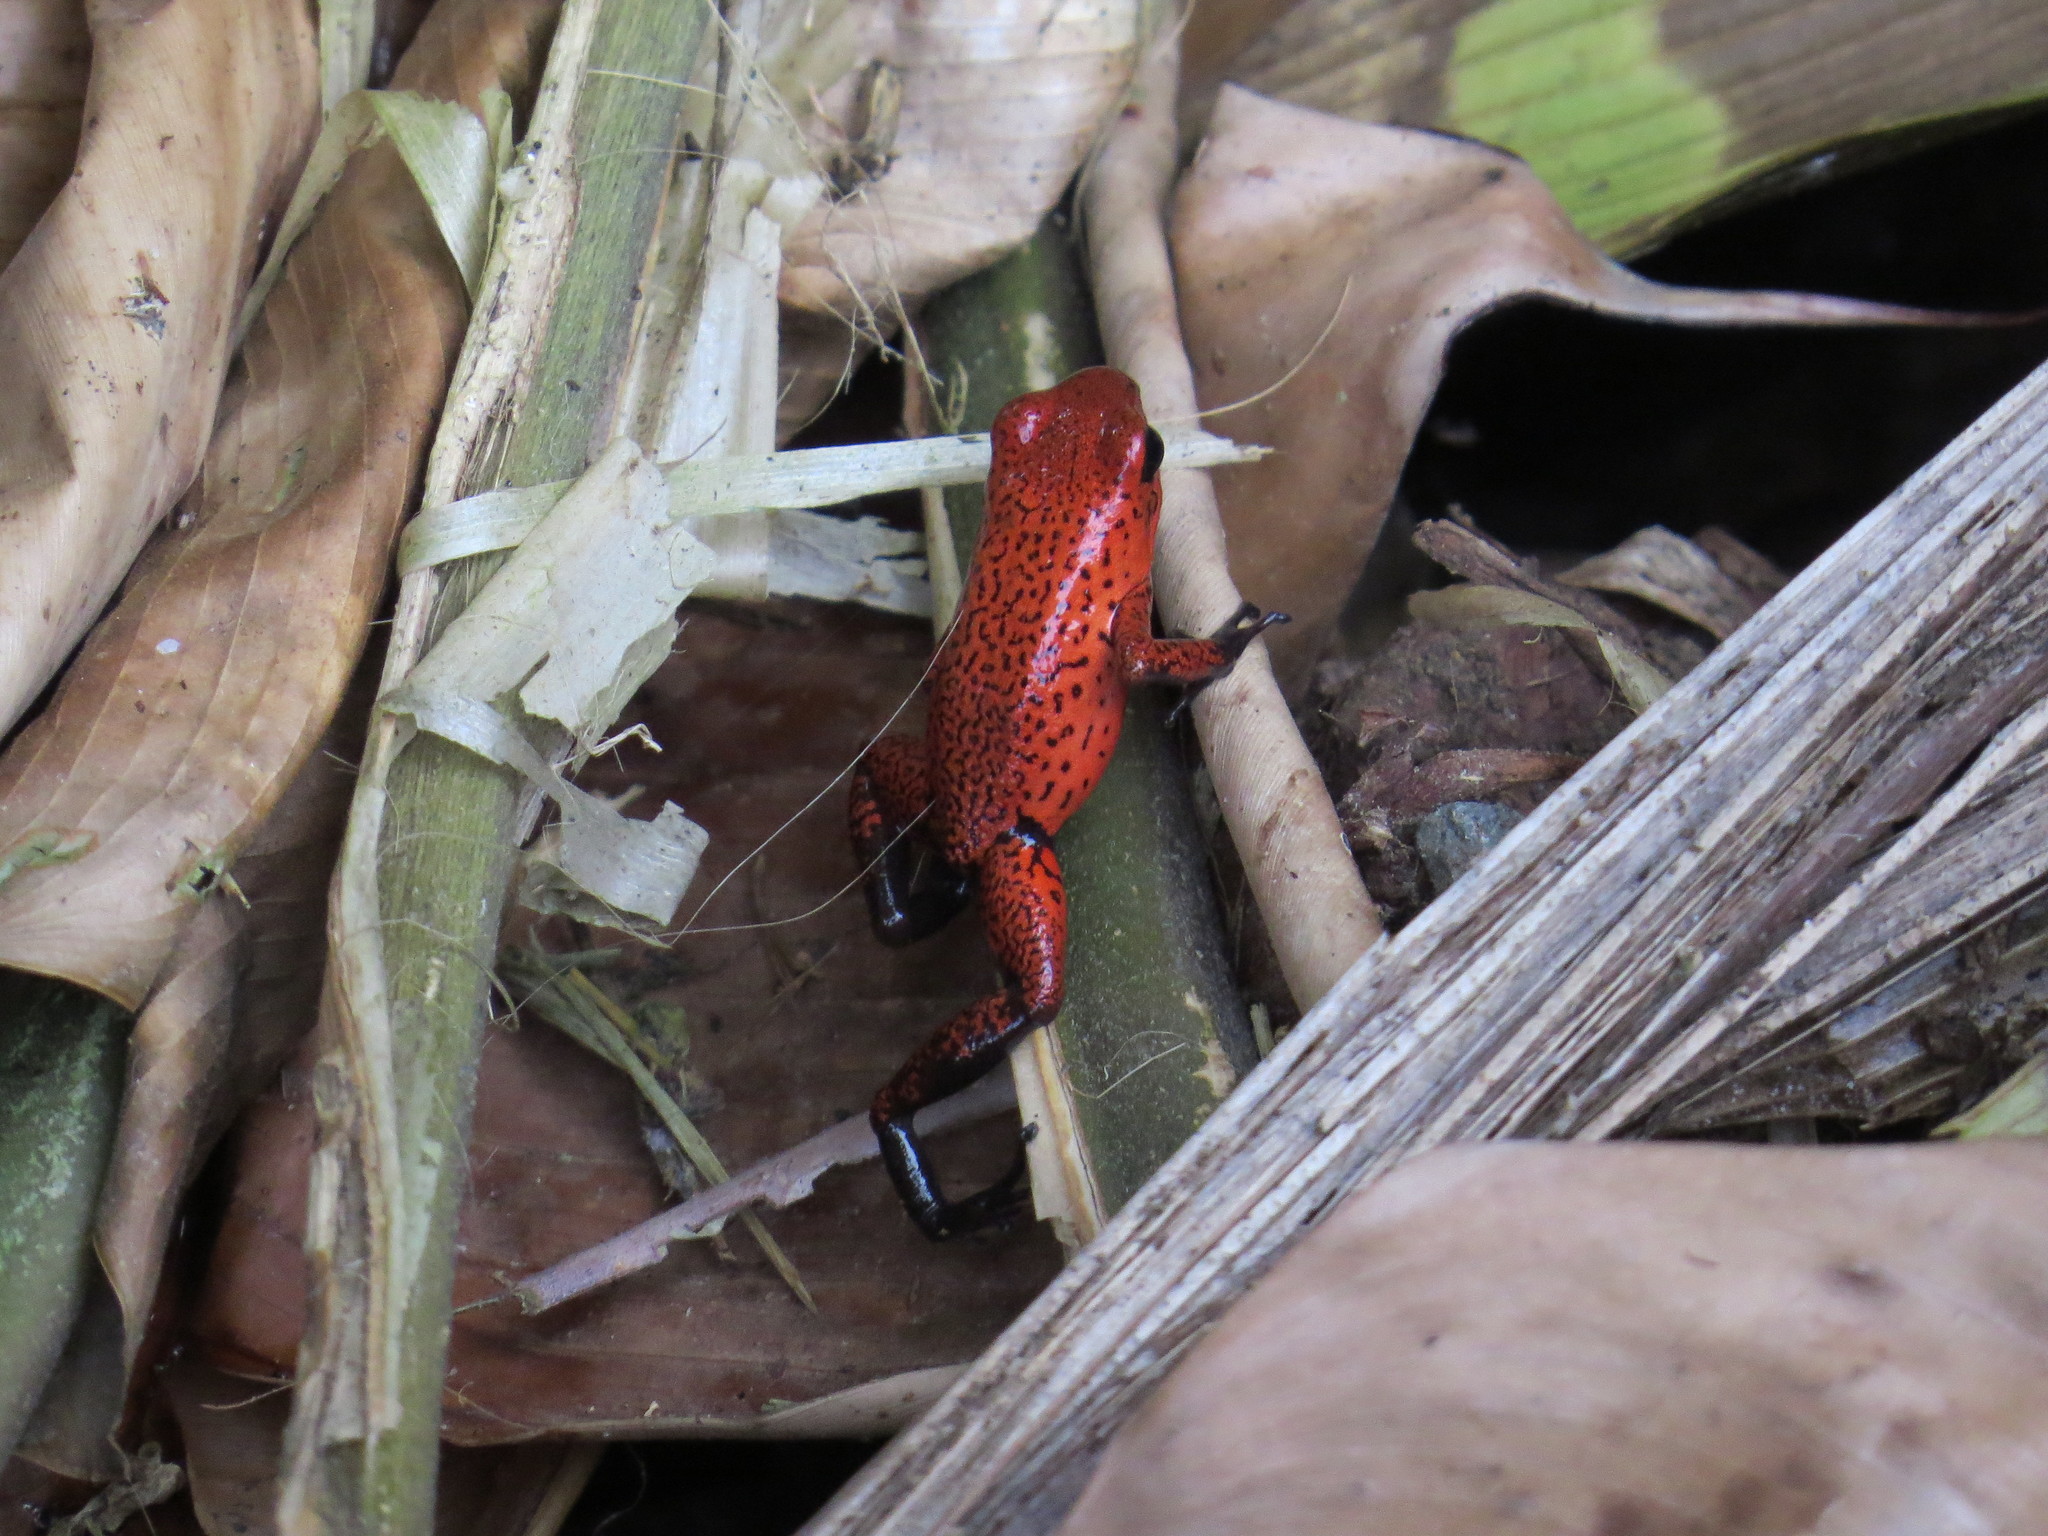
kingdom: Animalia
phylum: Chordata
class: Amphibia
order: Anura
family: Dendrobatidae
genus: Oophaga
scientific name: Oophaga pumilio
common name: Flaming poison frog
